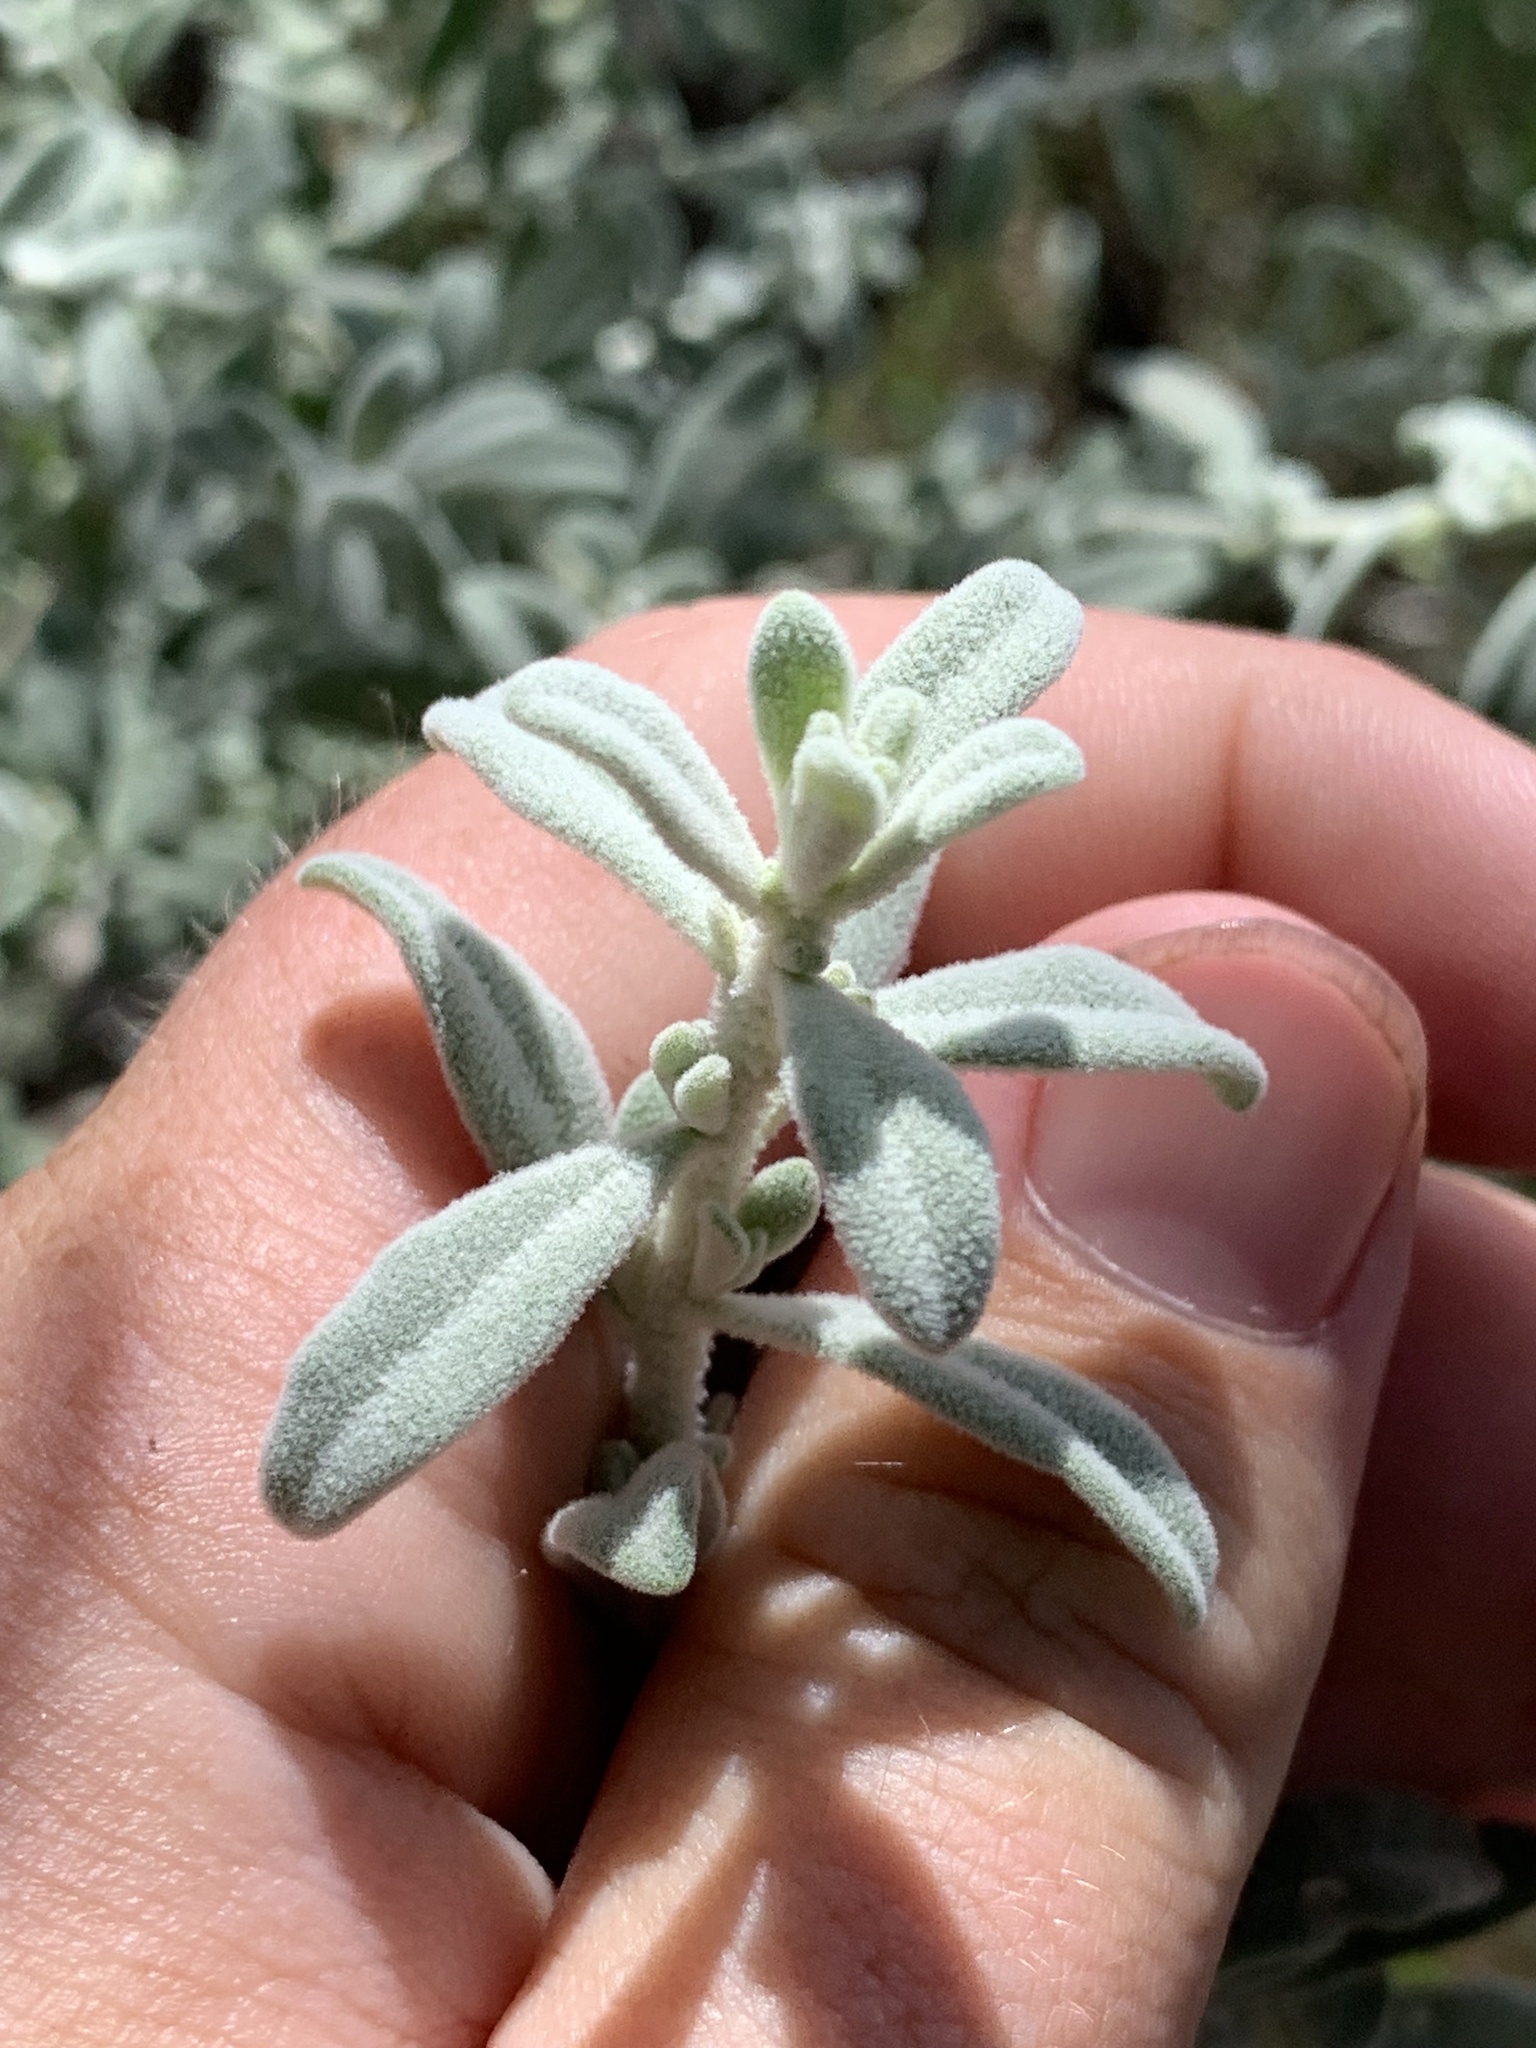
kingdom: Plantae
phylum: Tracheophyta
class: Magnoliopsida
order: Solanales
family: Solanaceae
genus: Cyphanthera
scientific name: Cyphanthera albicans
